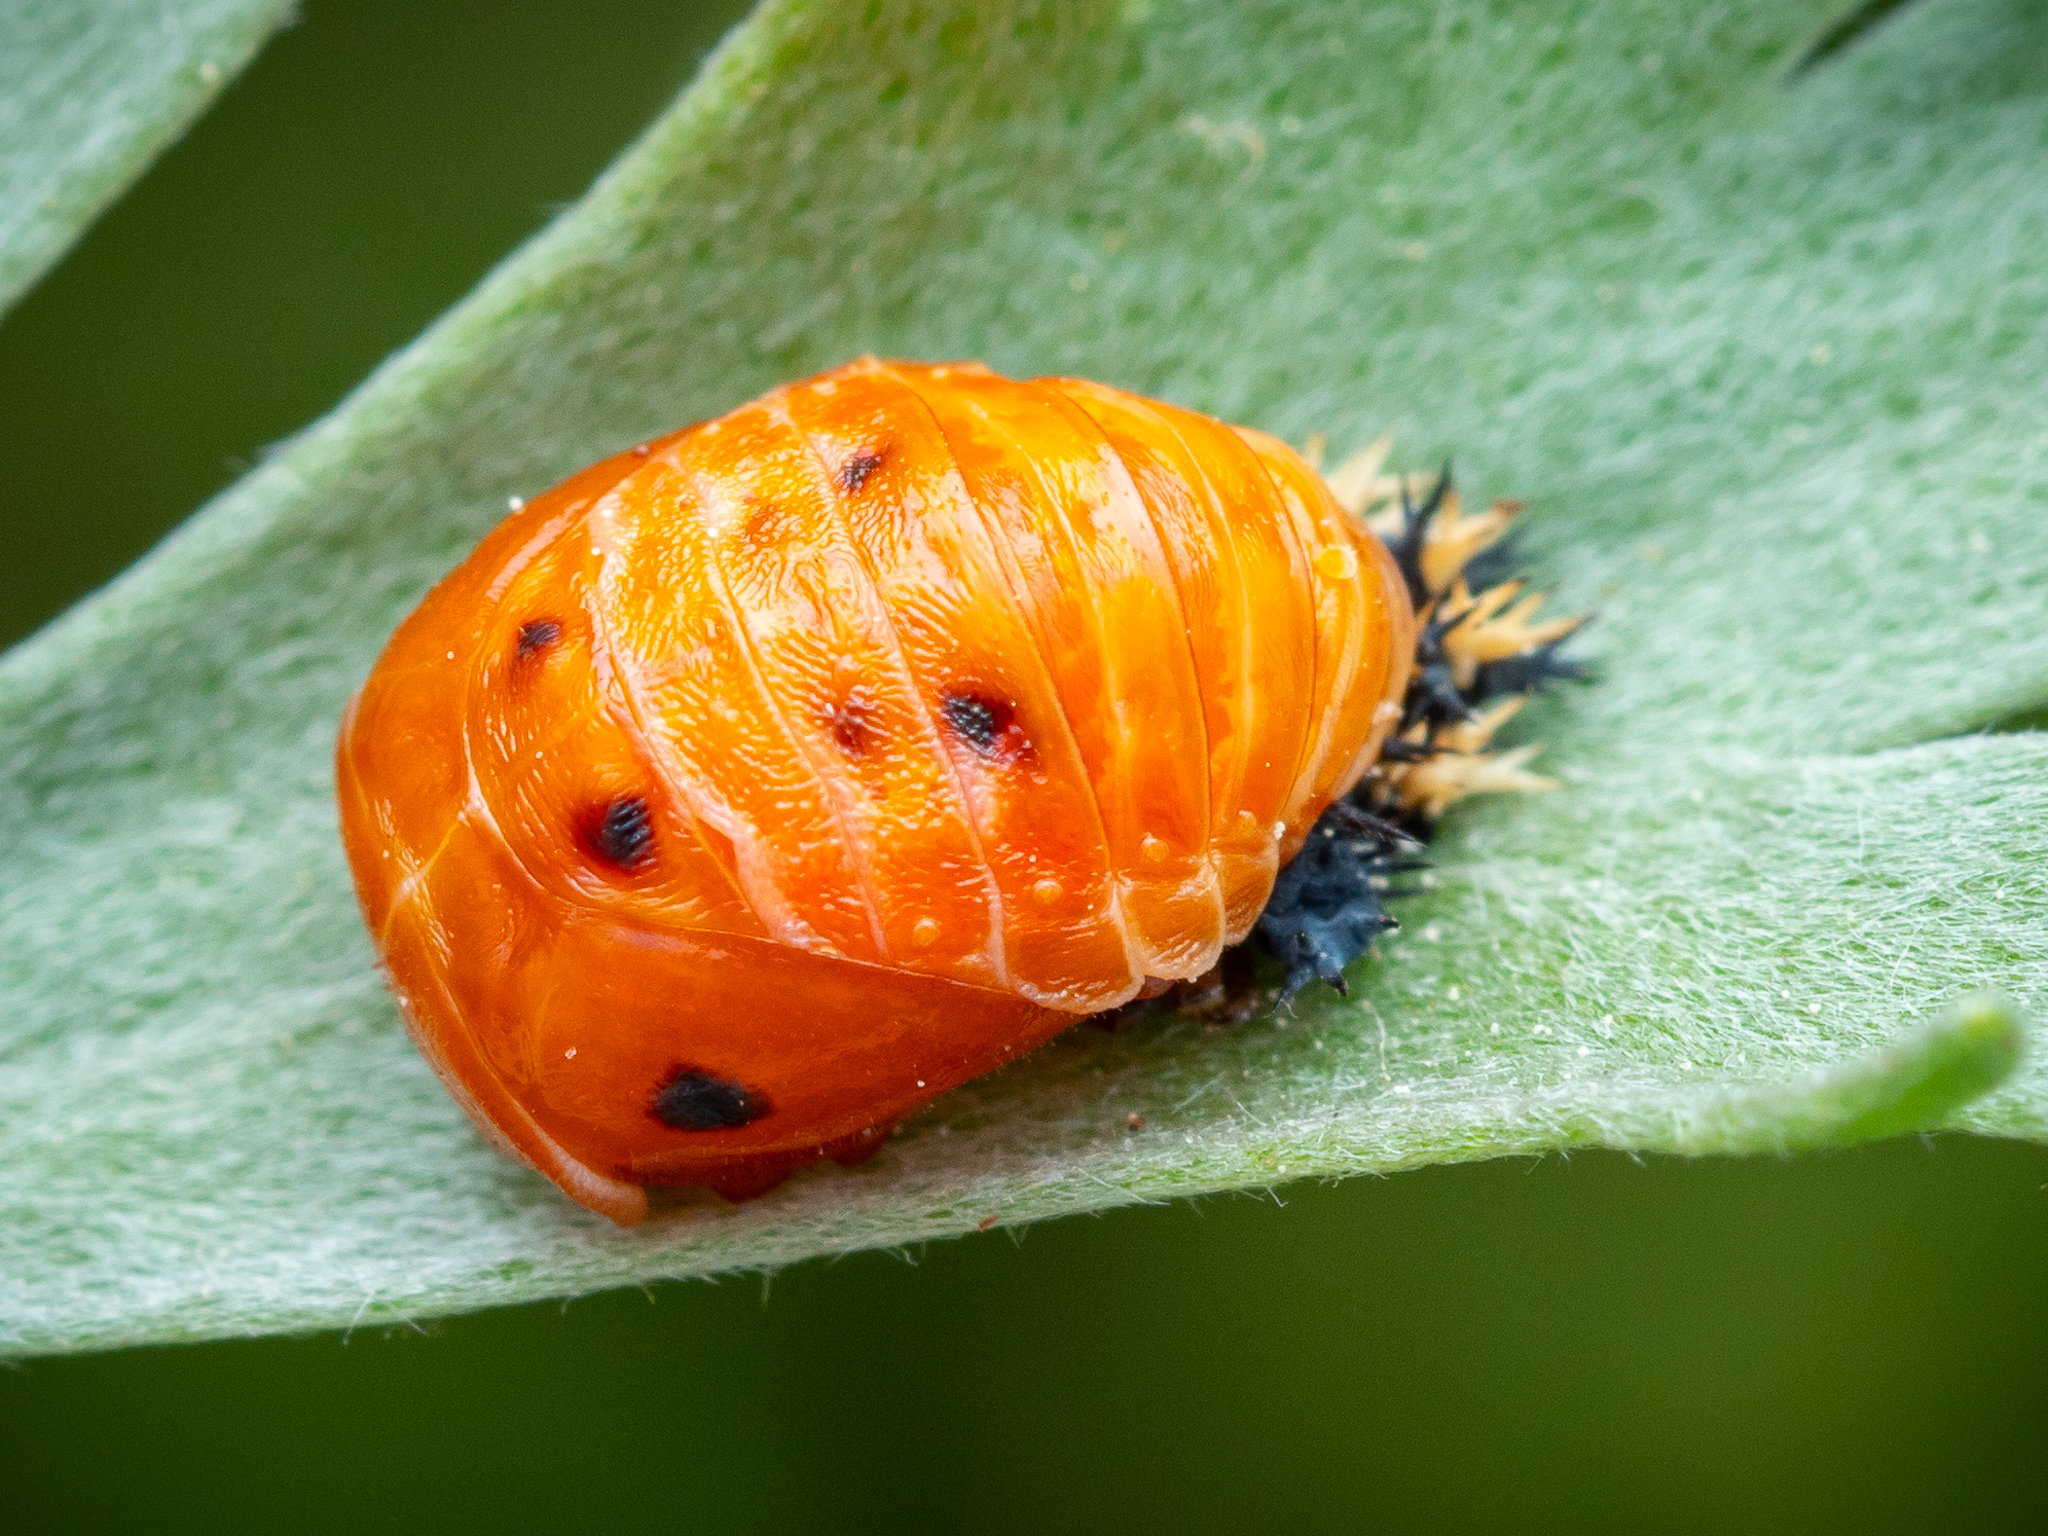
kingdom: Animalia
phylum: Arthropoda
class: Insecta
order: Coleoptera
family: Coccinellidae
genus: Harmonia
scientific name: Harmonia axyridis
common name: Harlequin ladybird
